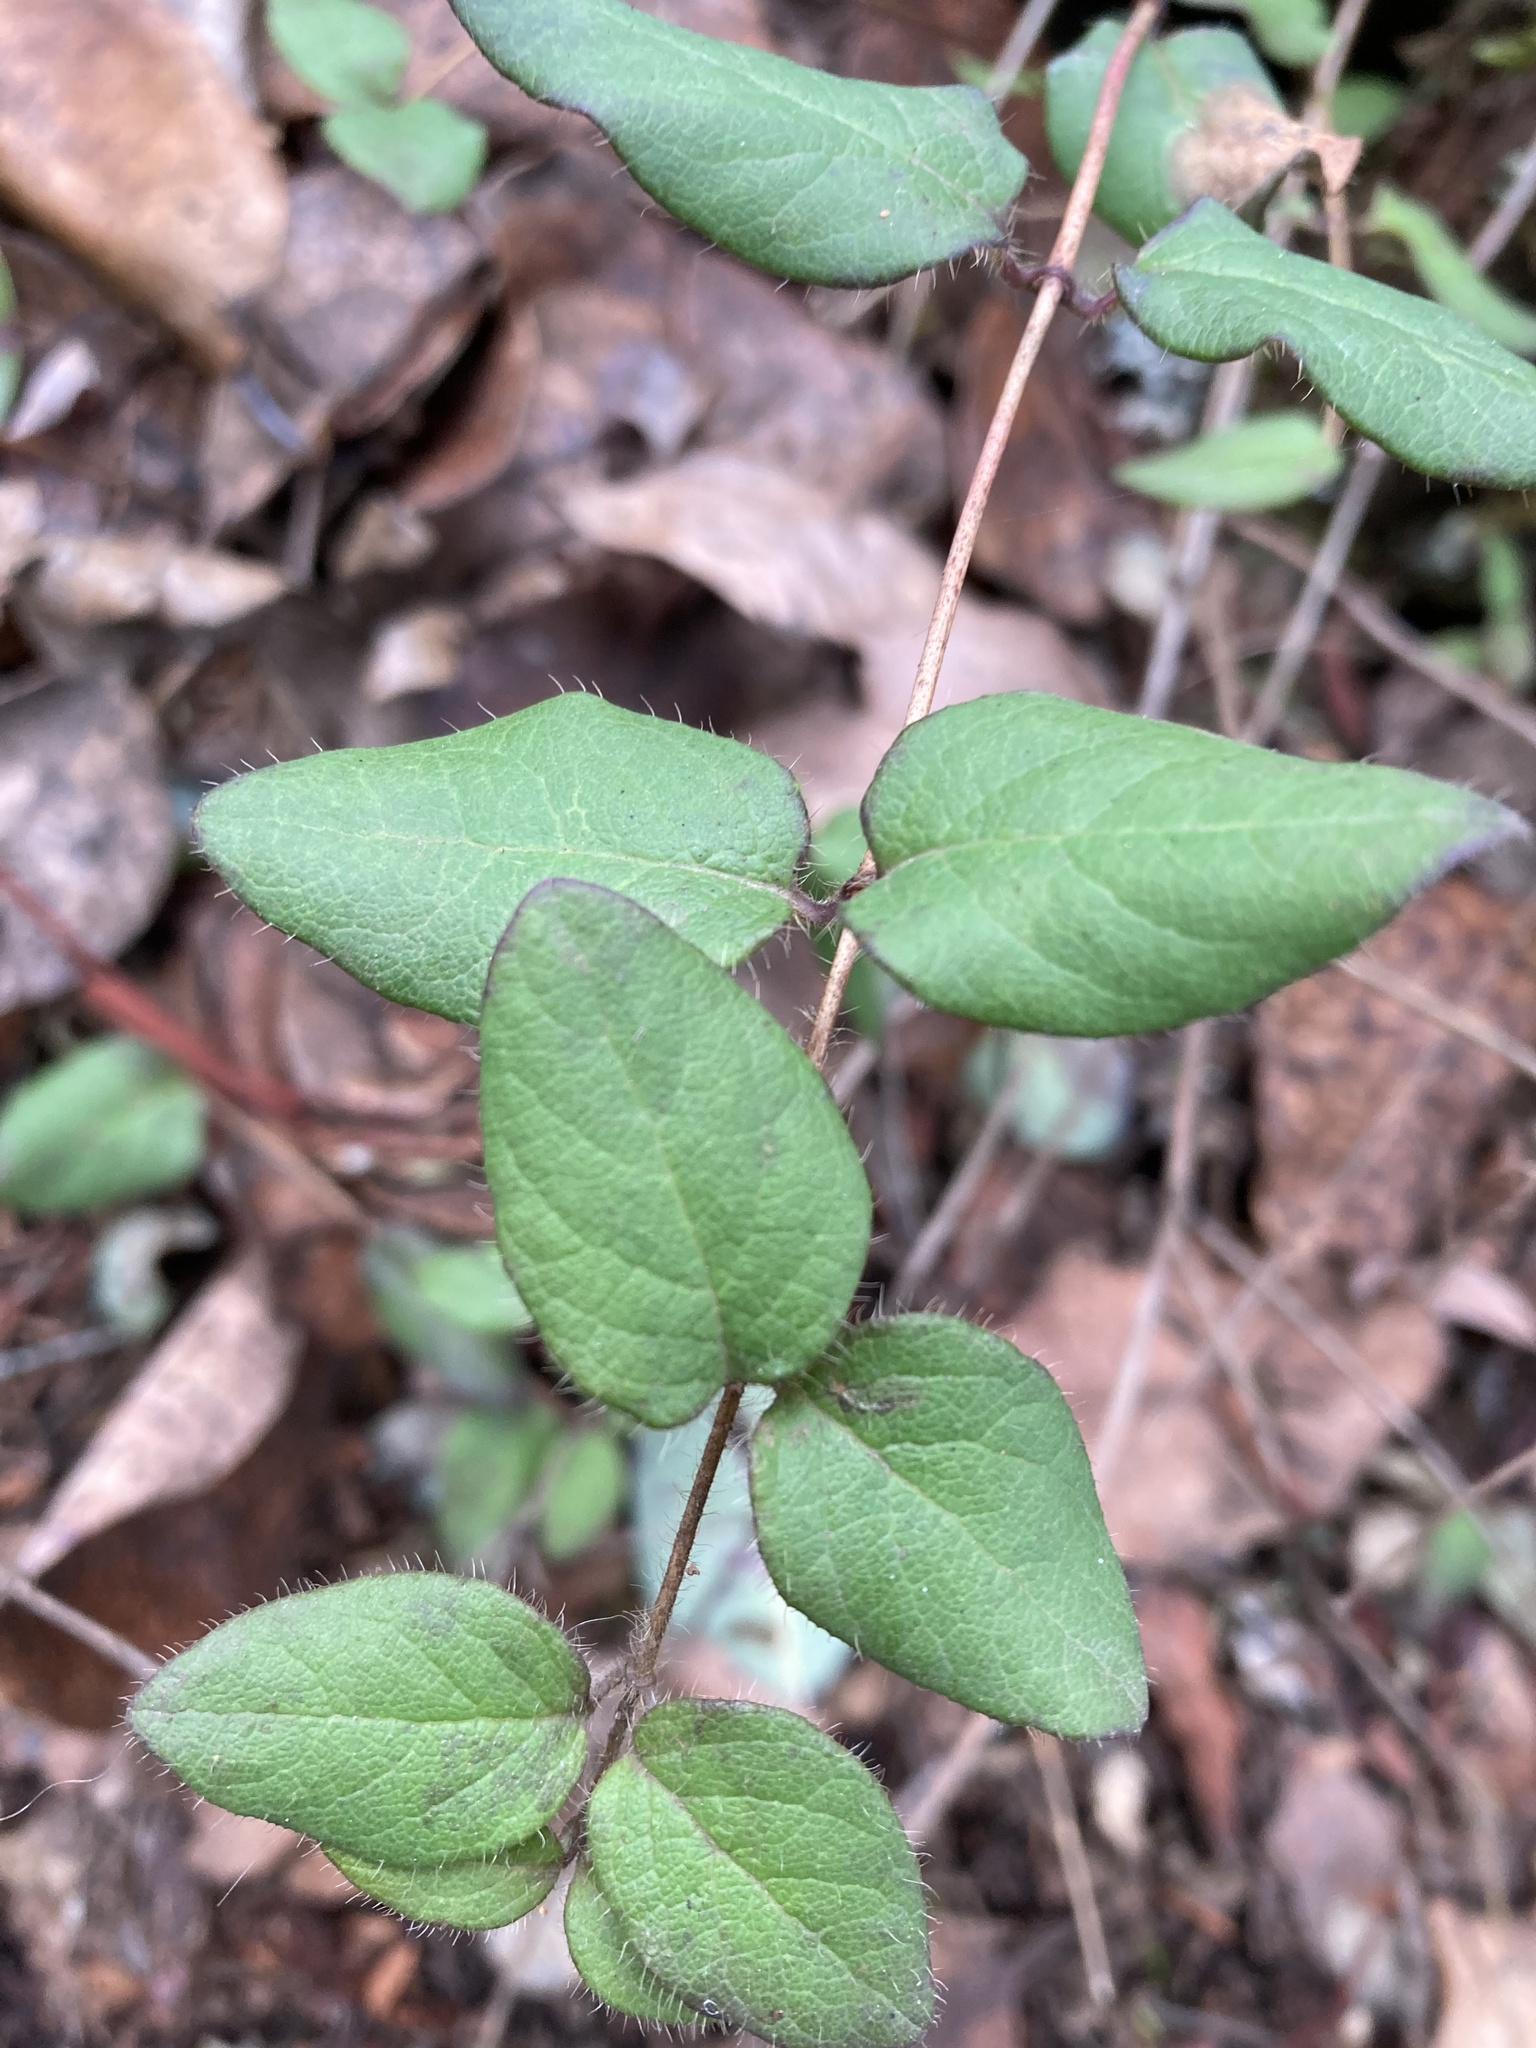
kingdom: Plantae
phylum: Tracheophyta
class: Magnoliopsida
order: Dipsacales
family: Caprifoliaceae
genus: Lonicera
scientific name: Lonicera hispidula
